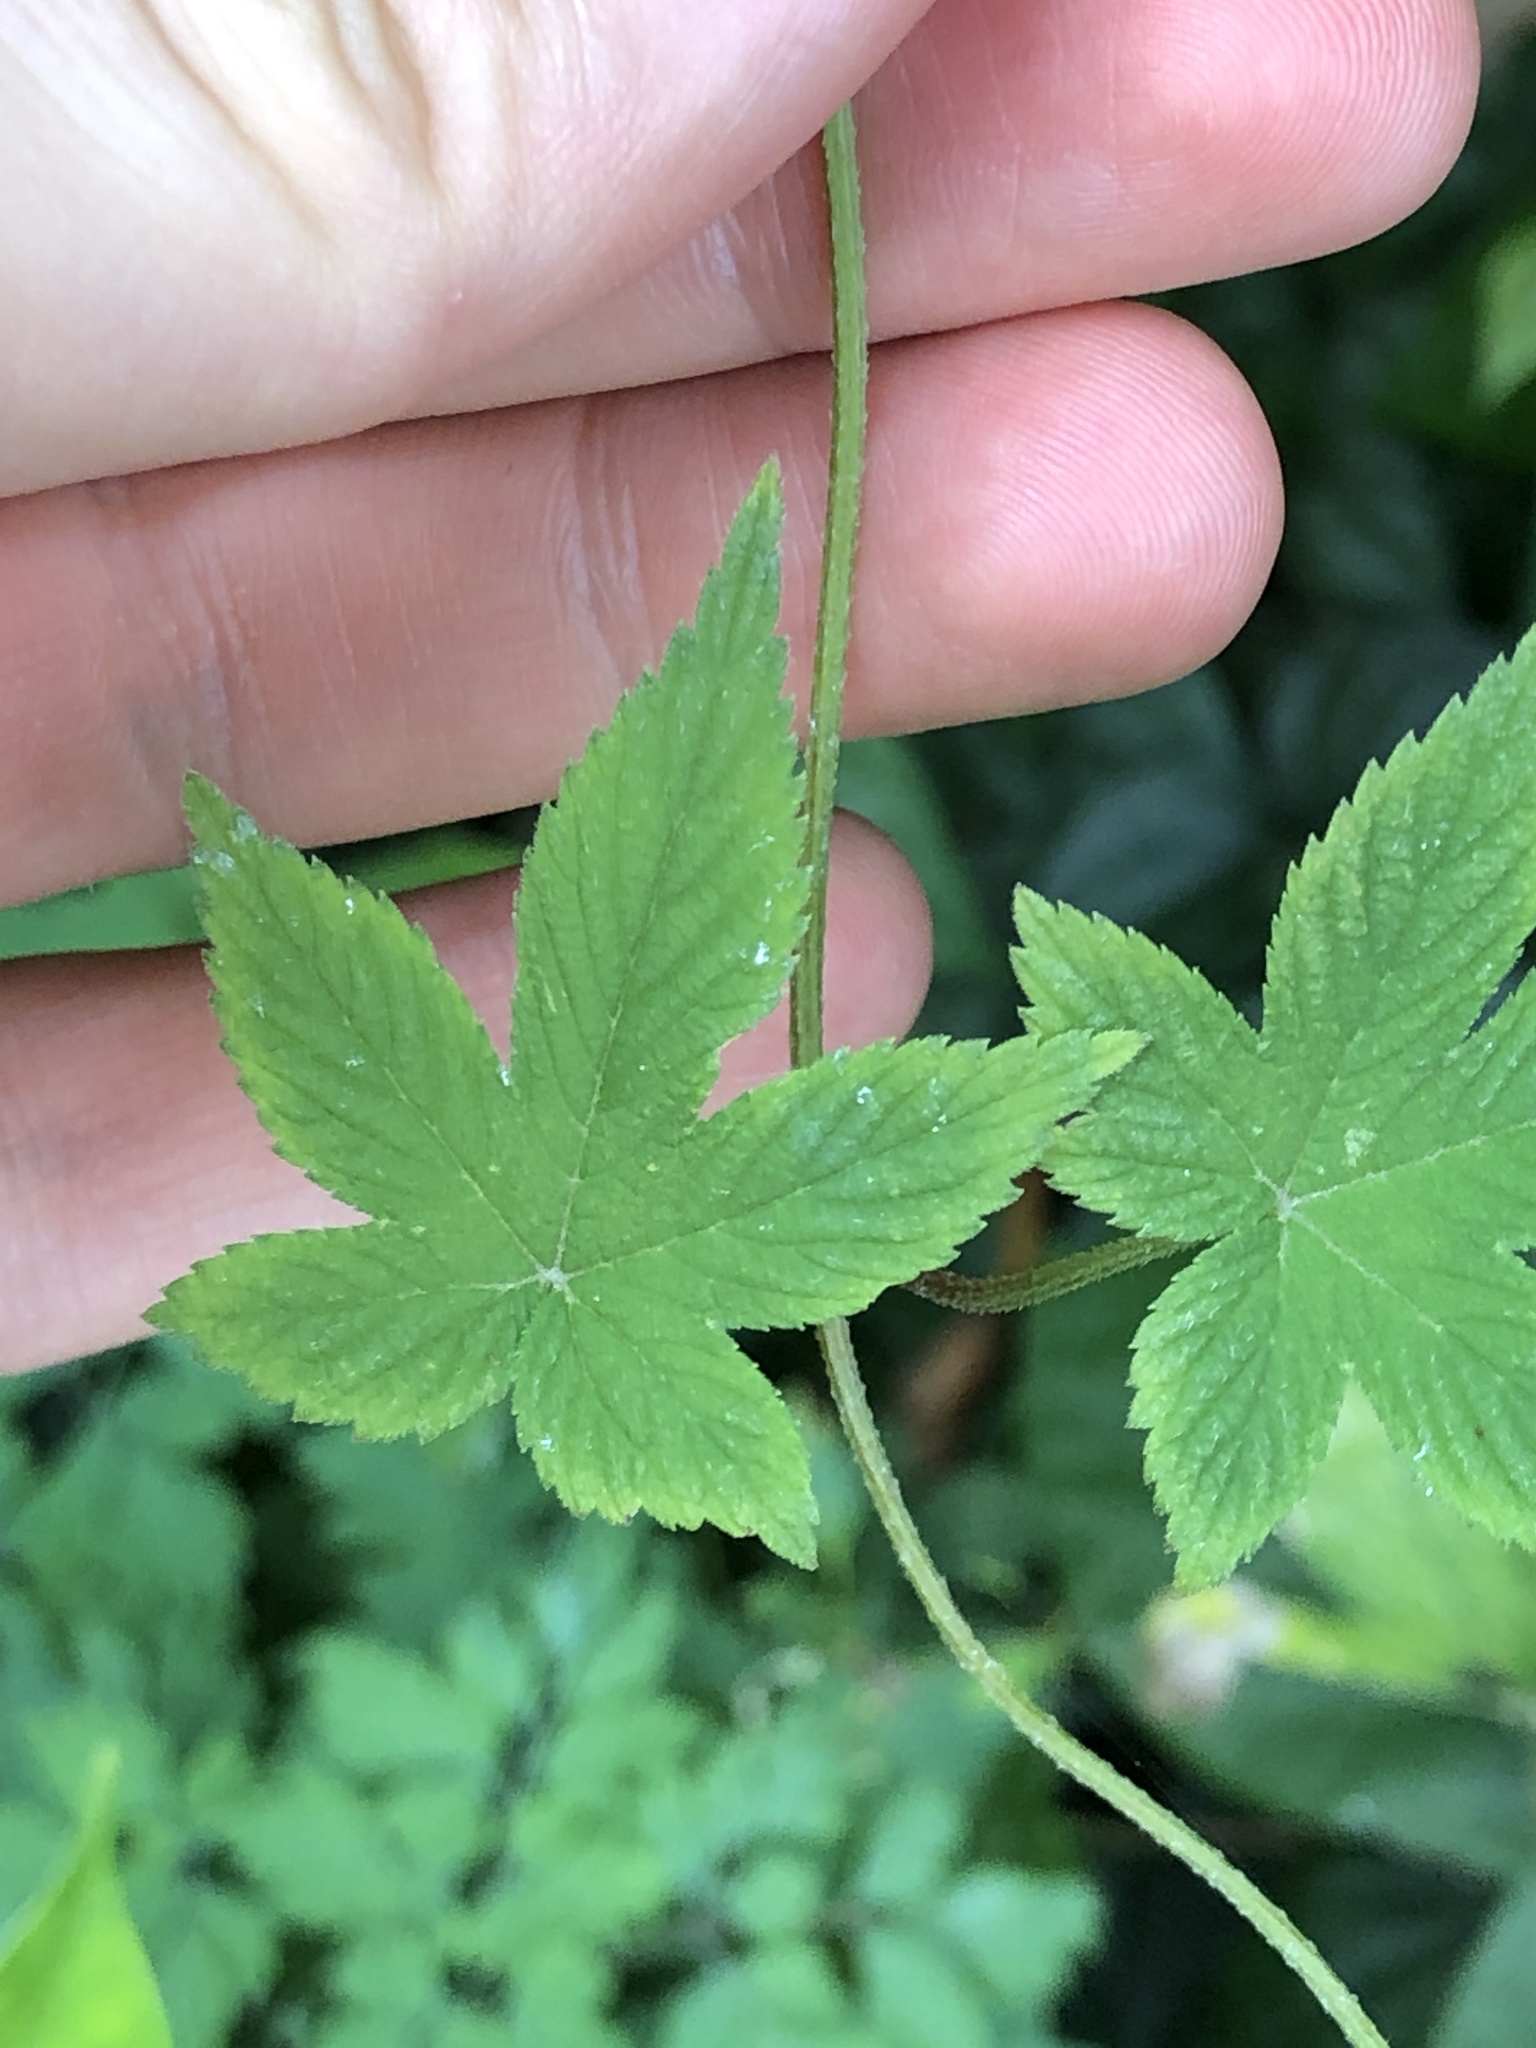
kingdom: Plantae
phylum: Tracheophyta
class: Magnoliopsida
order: Rosales
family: Cannabaceae
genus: Humulus
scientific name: Humulus scandens
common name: Japanese hop
